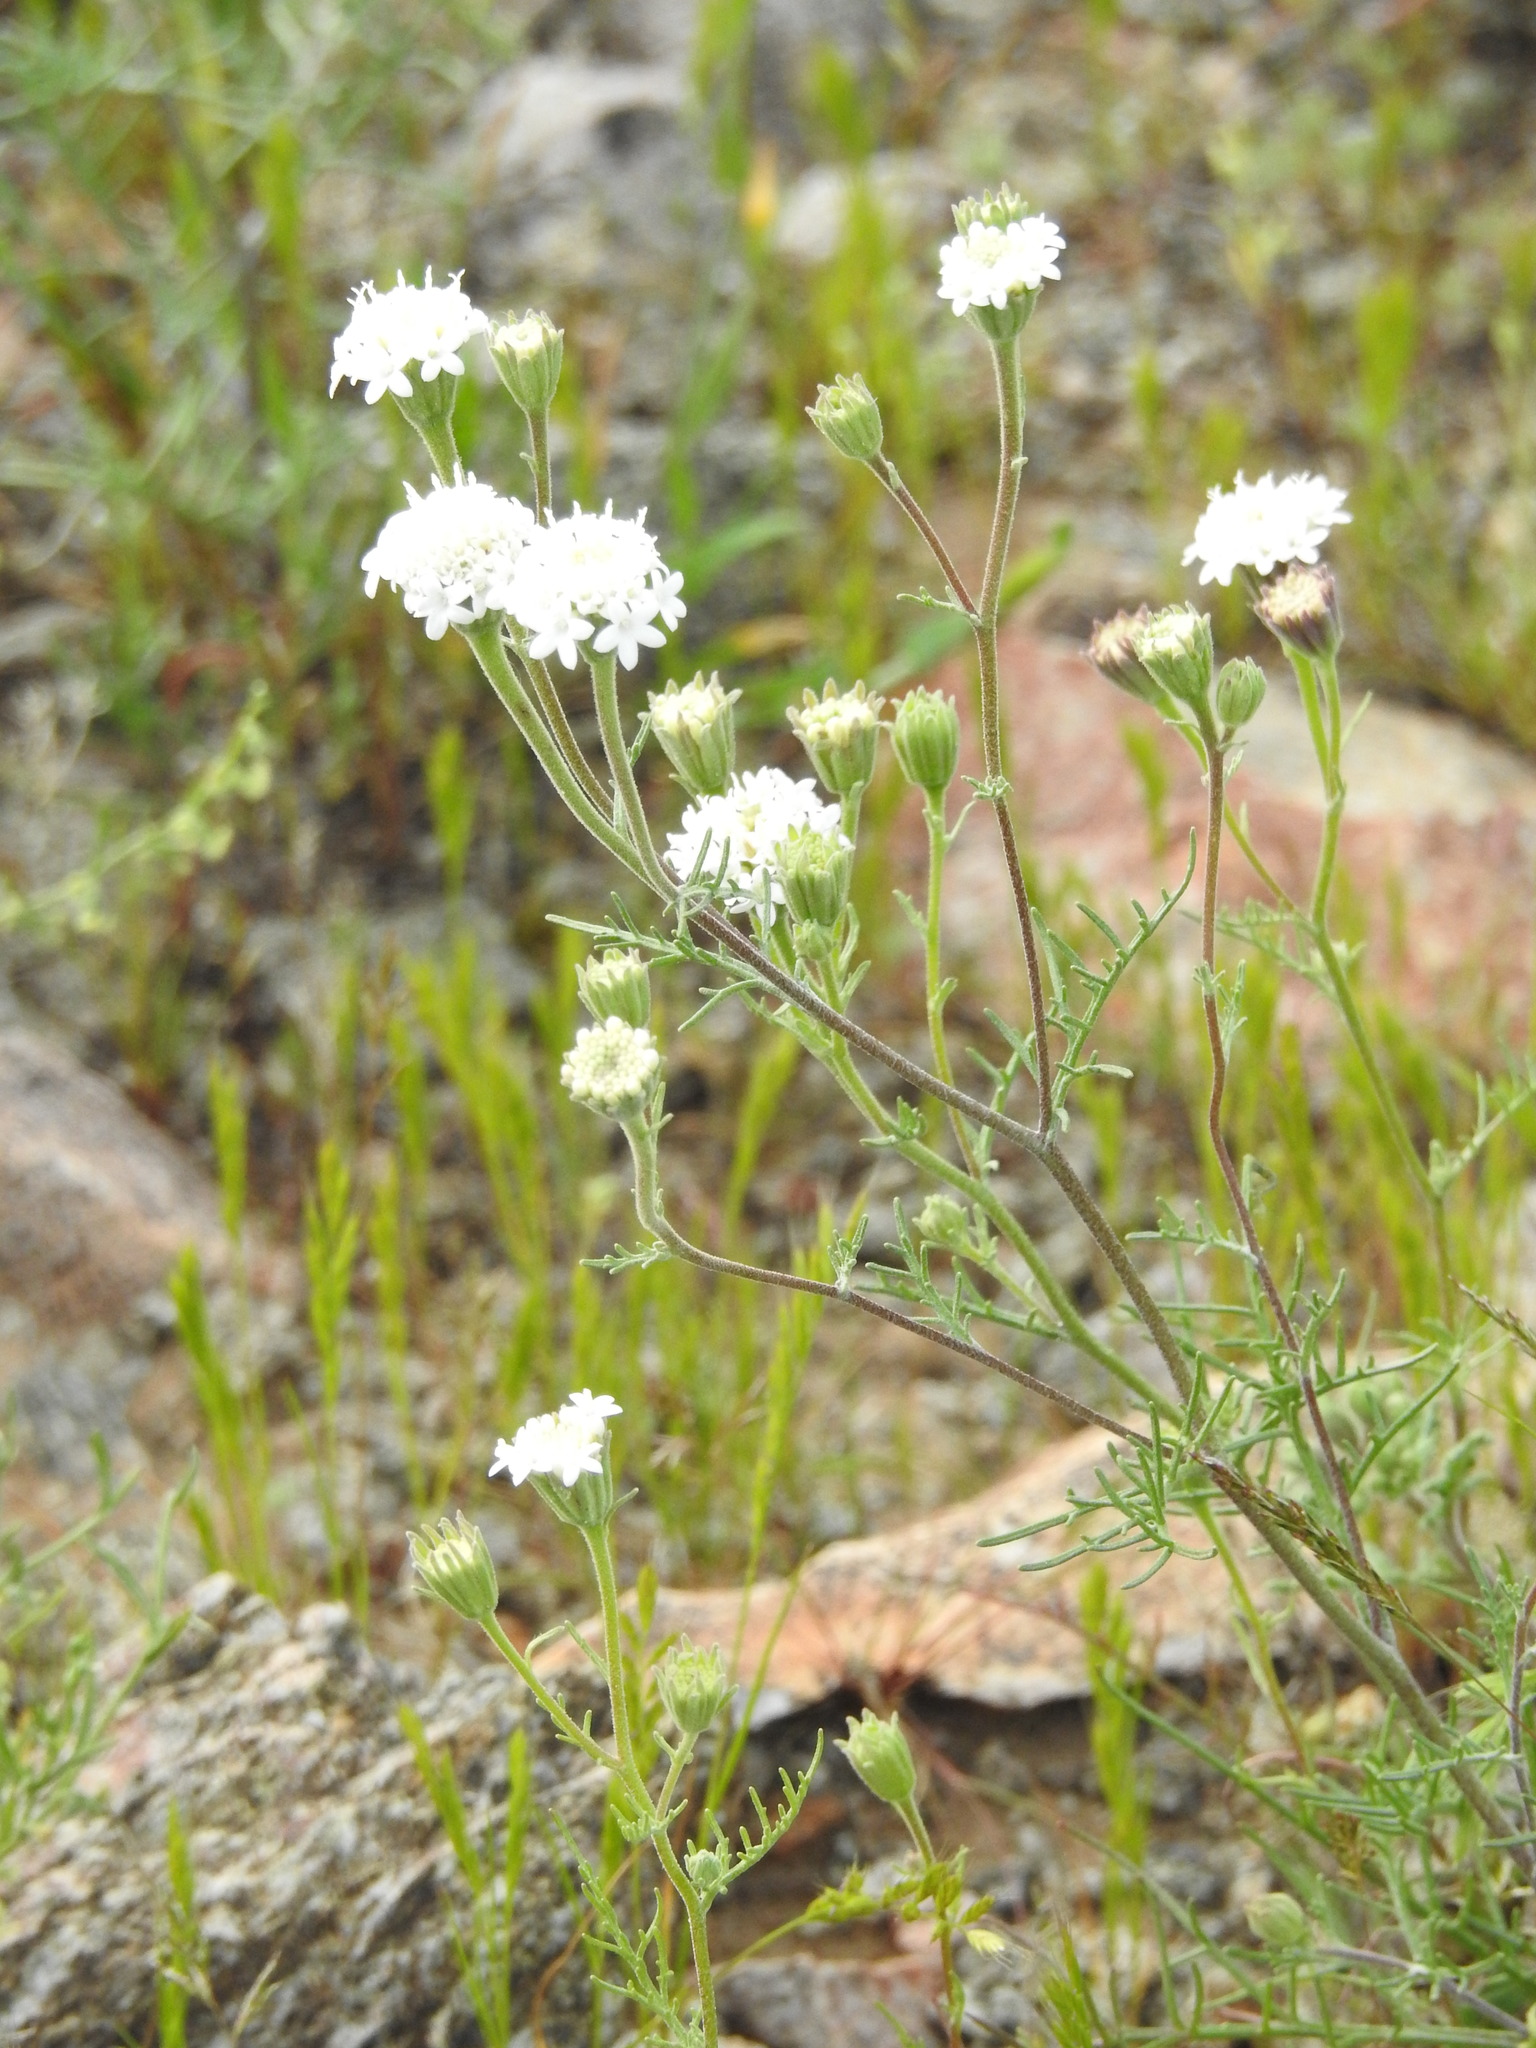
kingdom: Plantae
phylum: Tracheophyta
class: Magnoliopsida
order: Asterales
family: Asteraceae
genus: Chaenactis
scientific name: Chaenactis stevioides
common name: Desert pincushion
